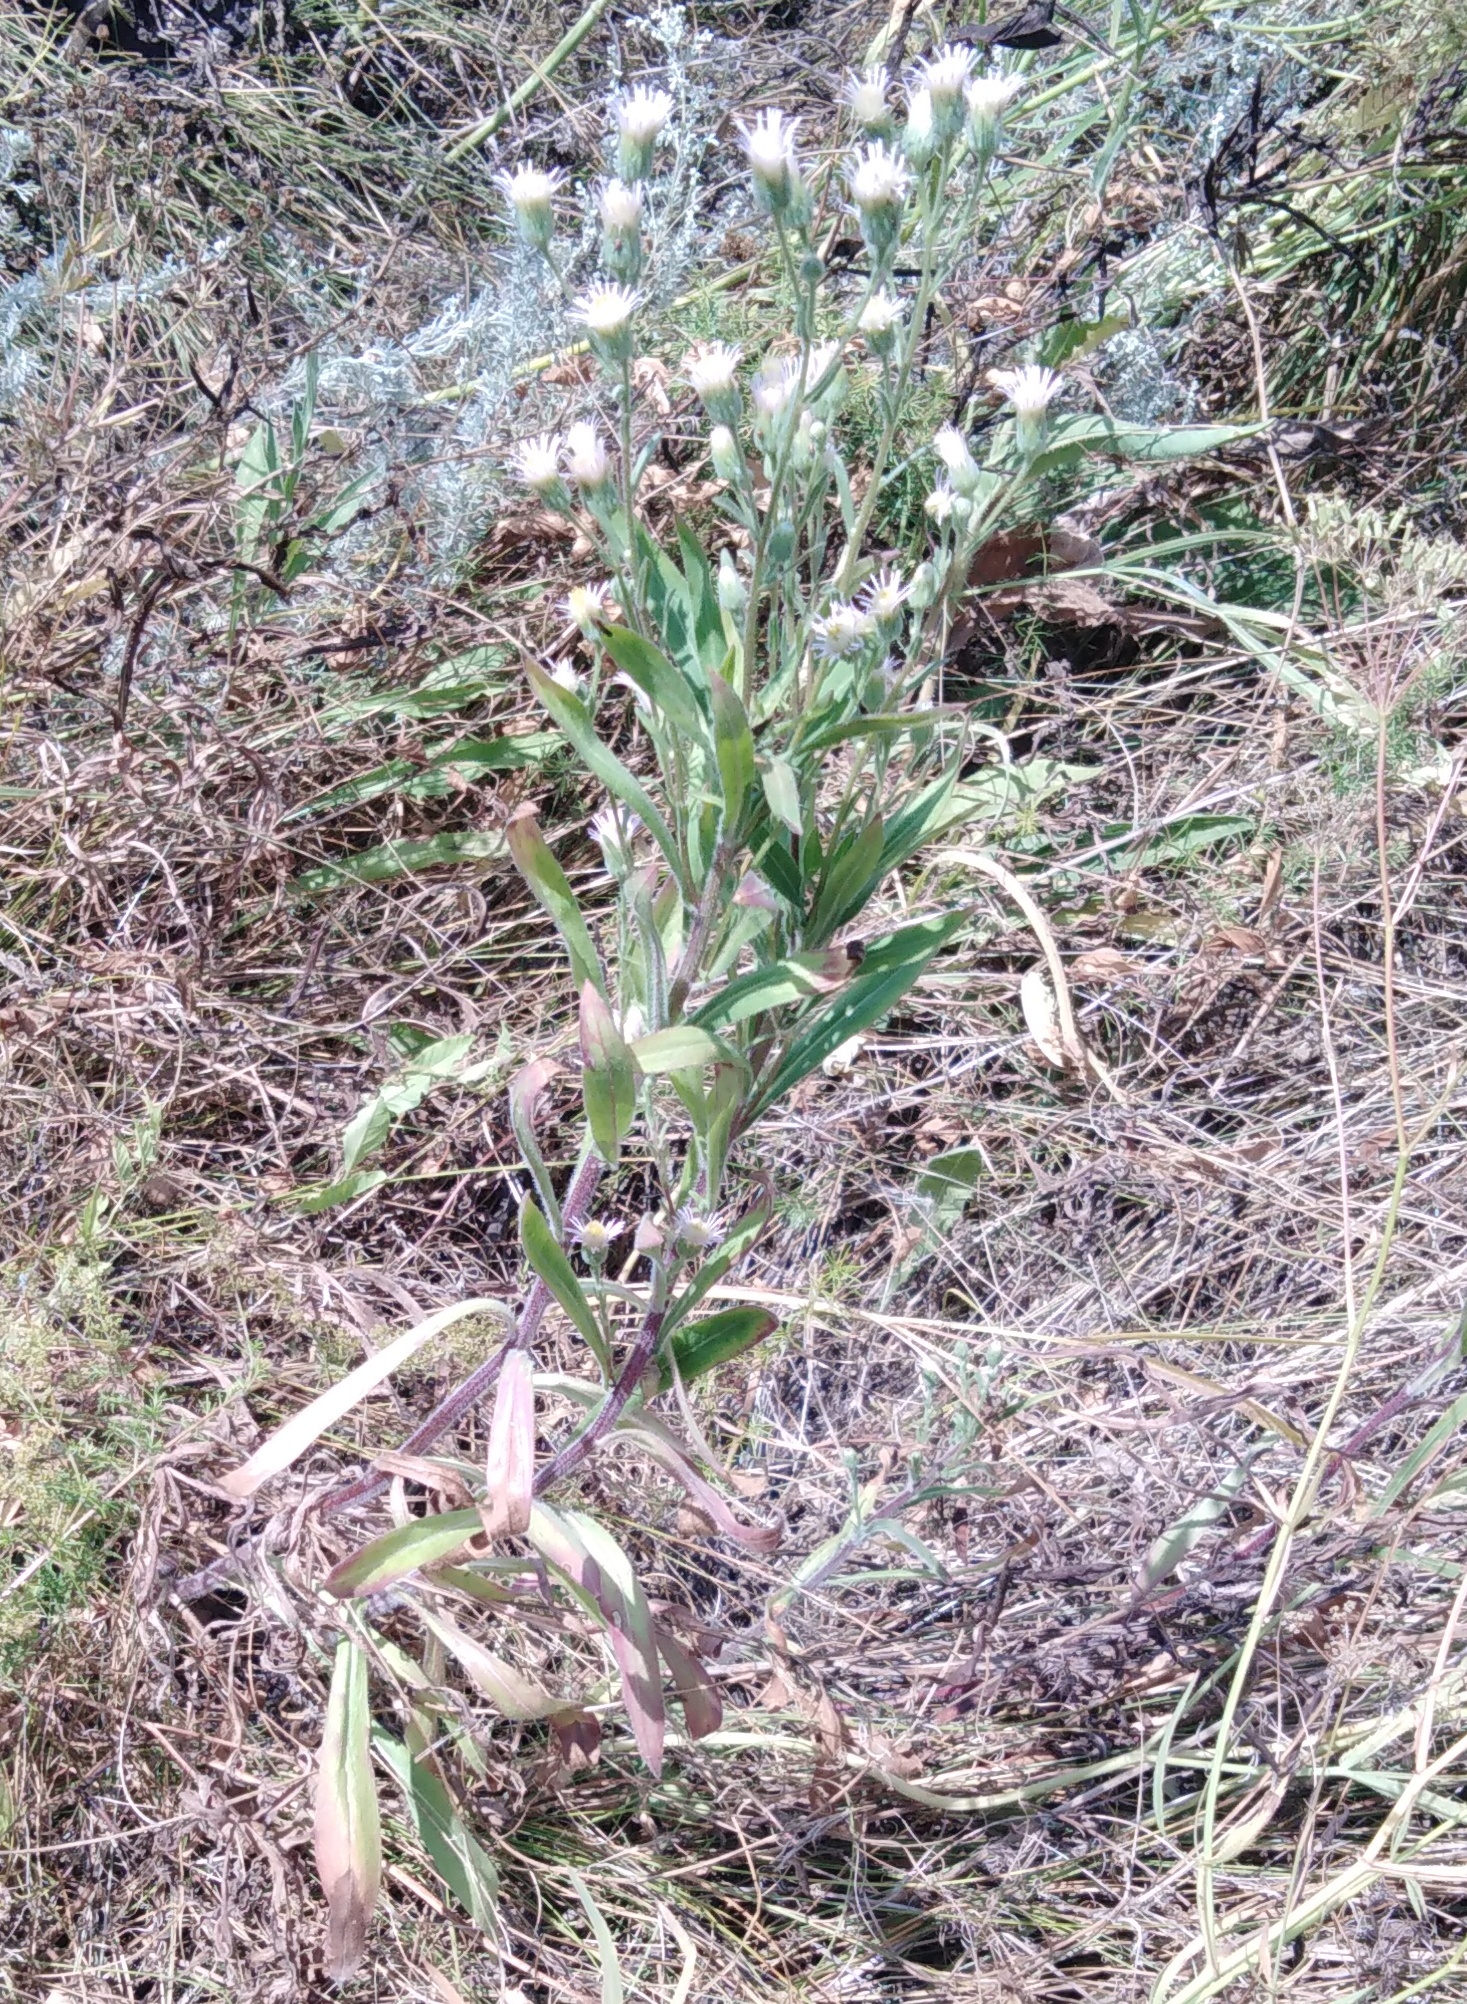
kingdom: Plantae
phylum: Tracheophyta
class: Magnoliopsida
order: Asterales
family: Asteraceae
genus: Erigeron
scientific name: Erigeron acris
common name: Blue fleabane
